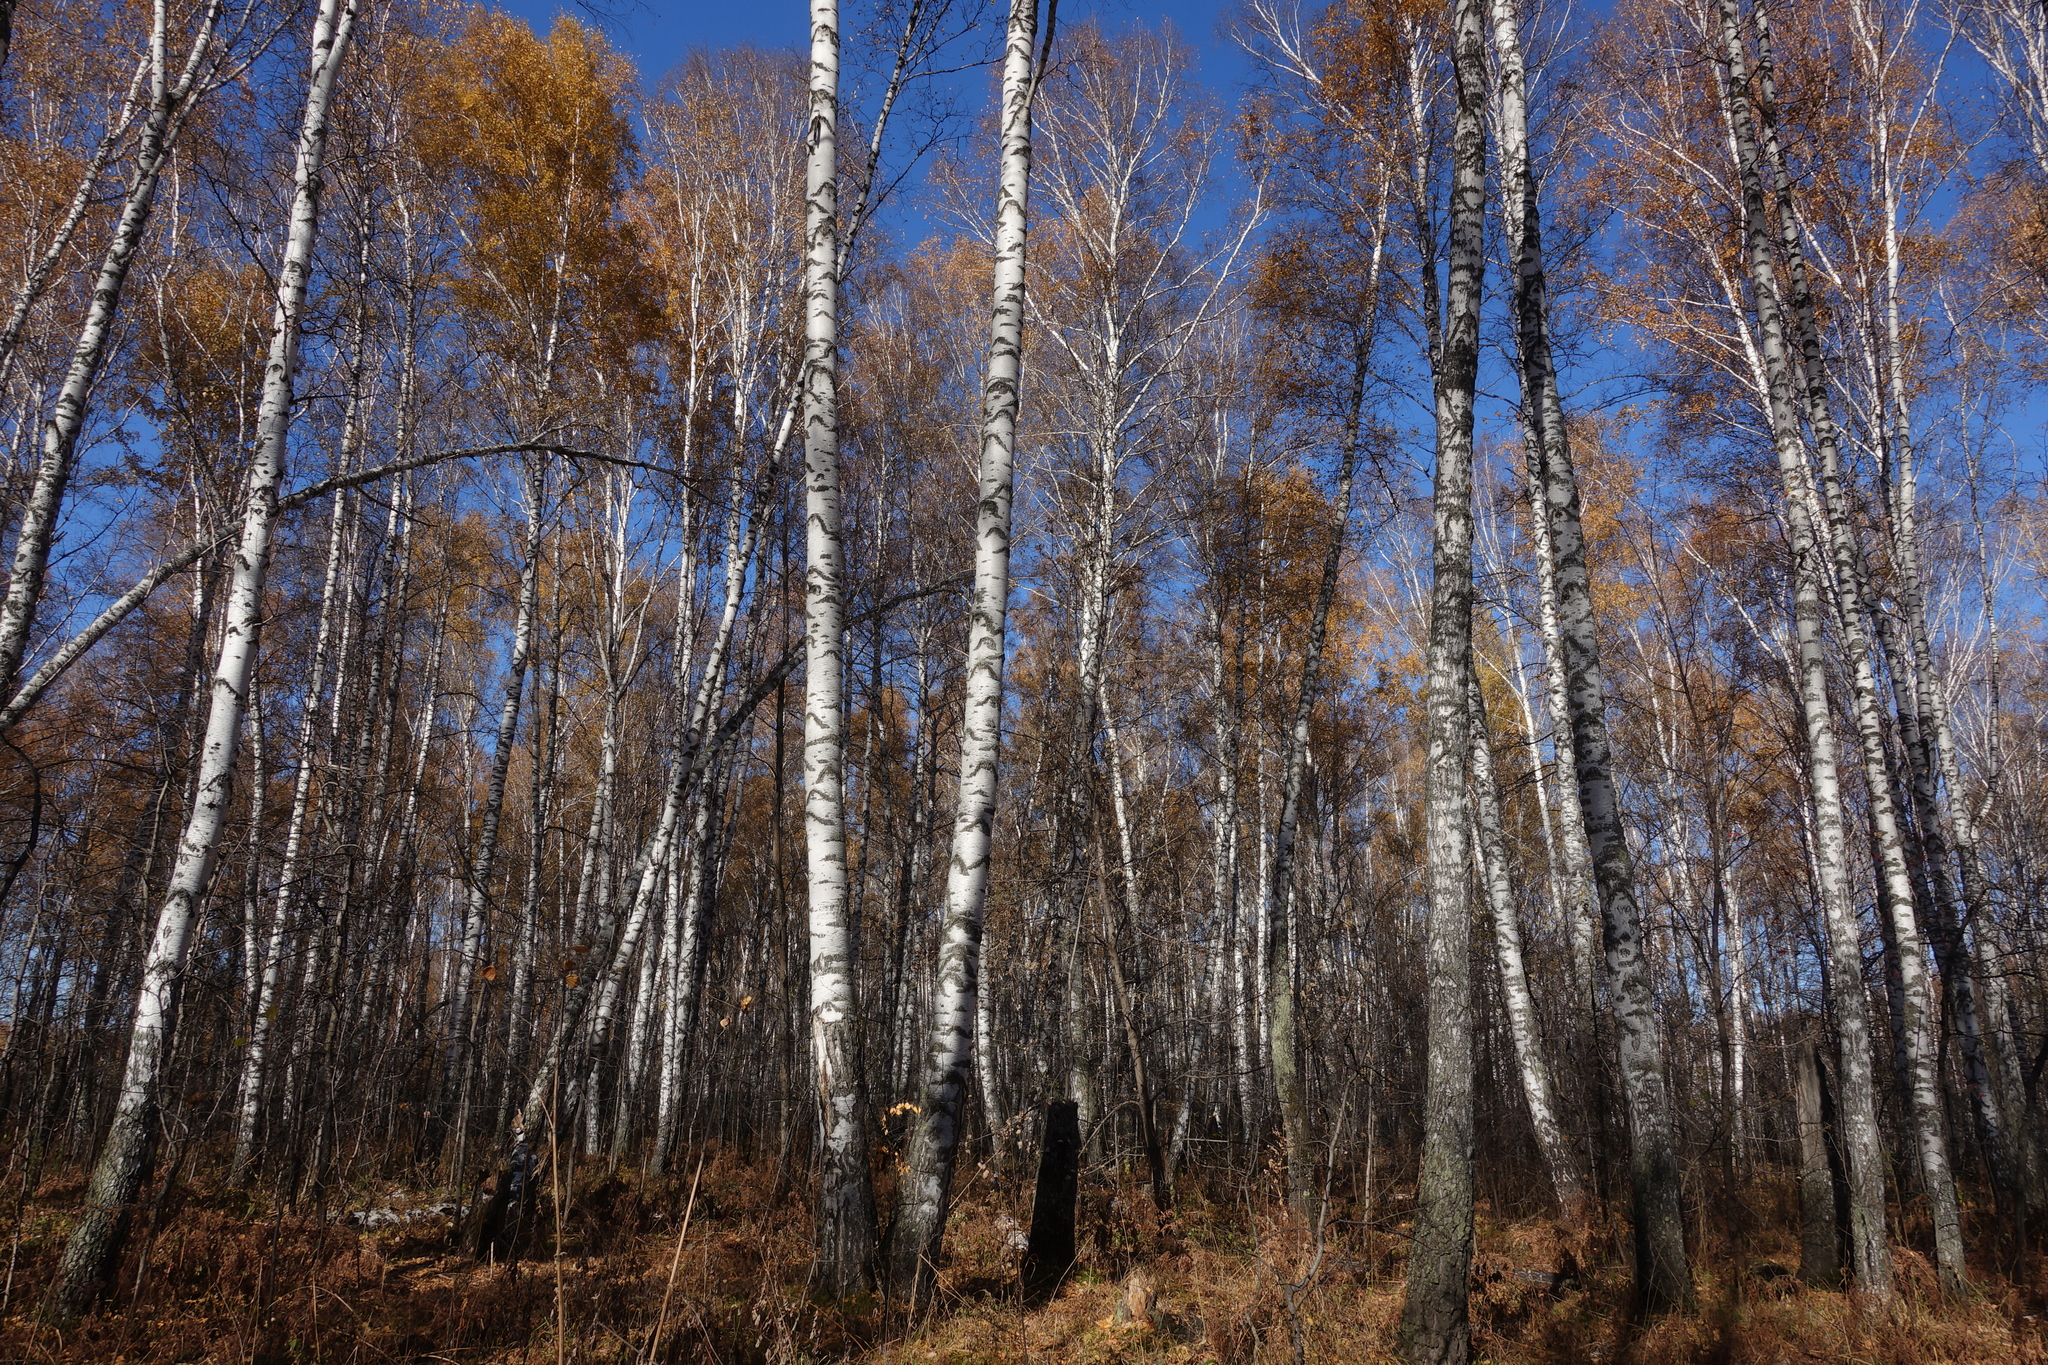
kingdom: Plantae
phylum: Tracheophyta
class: Magnoliopsida
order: Fagales
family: Betulaceae
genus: Betula
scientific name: Betula pendula
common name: Silver birch
